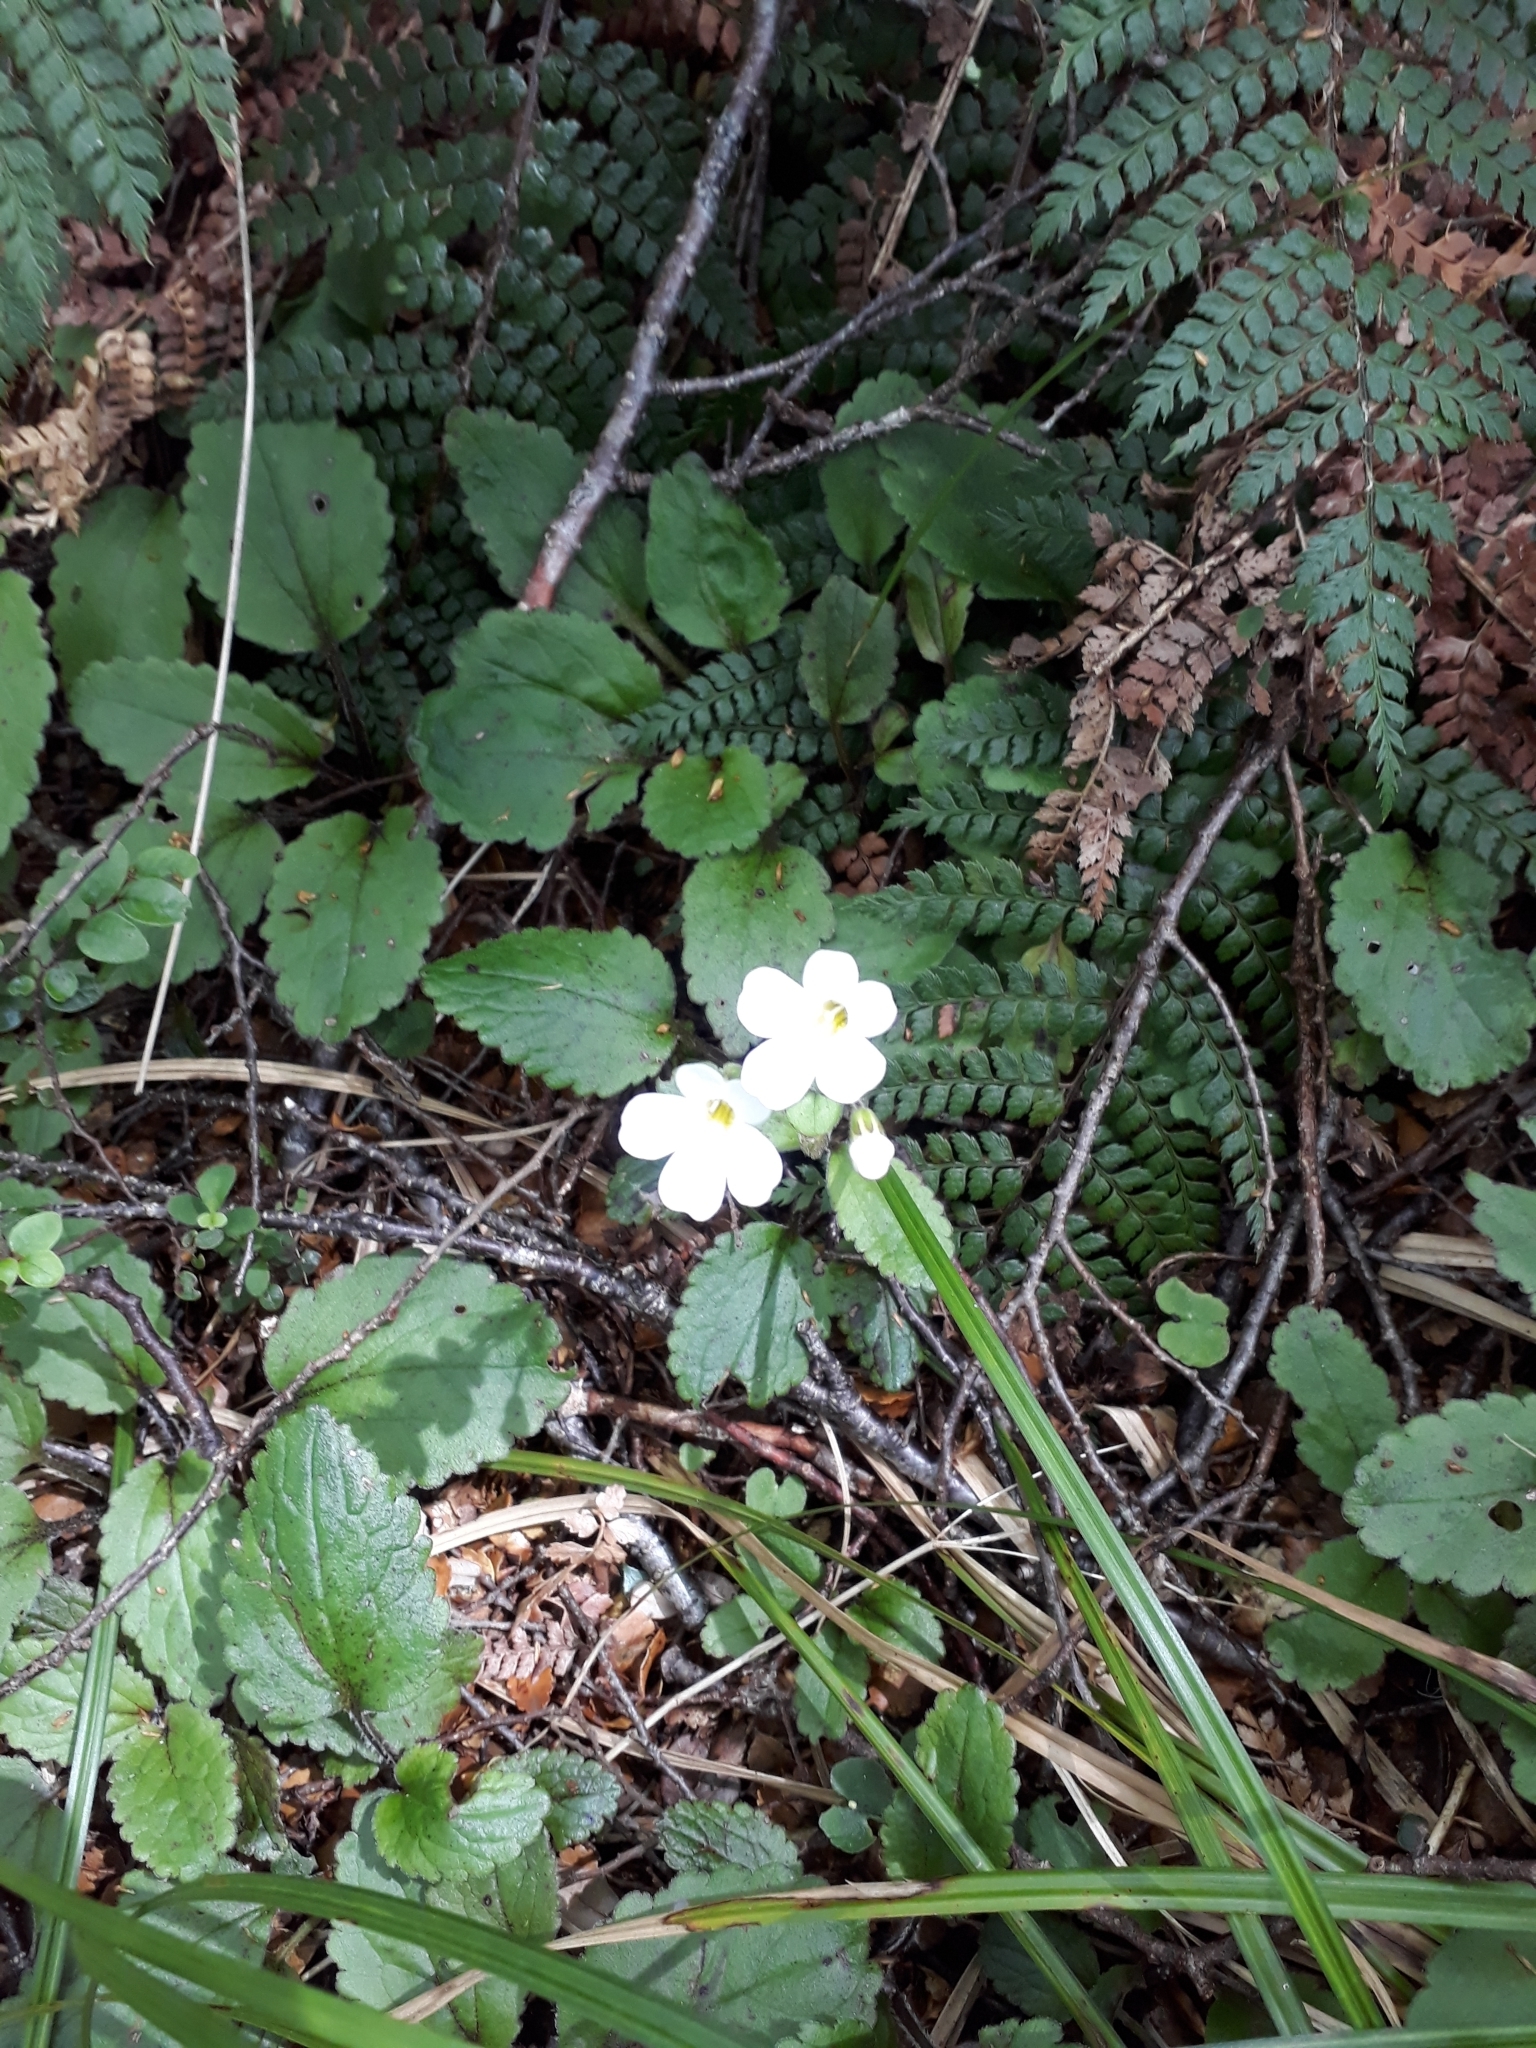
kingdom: Plantae
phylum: Tracheophyta
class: Magnoliopsida
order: Lamiales
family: Plantaginaceae
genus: Ourisia
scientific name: Ourisia macrophylla
